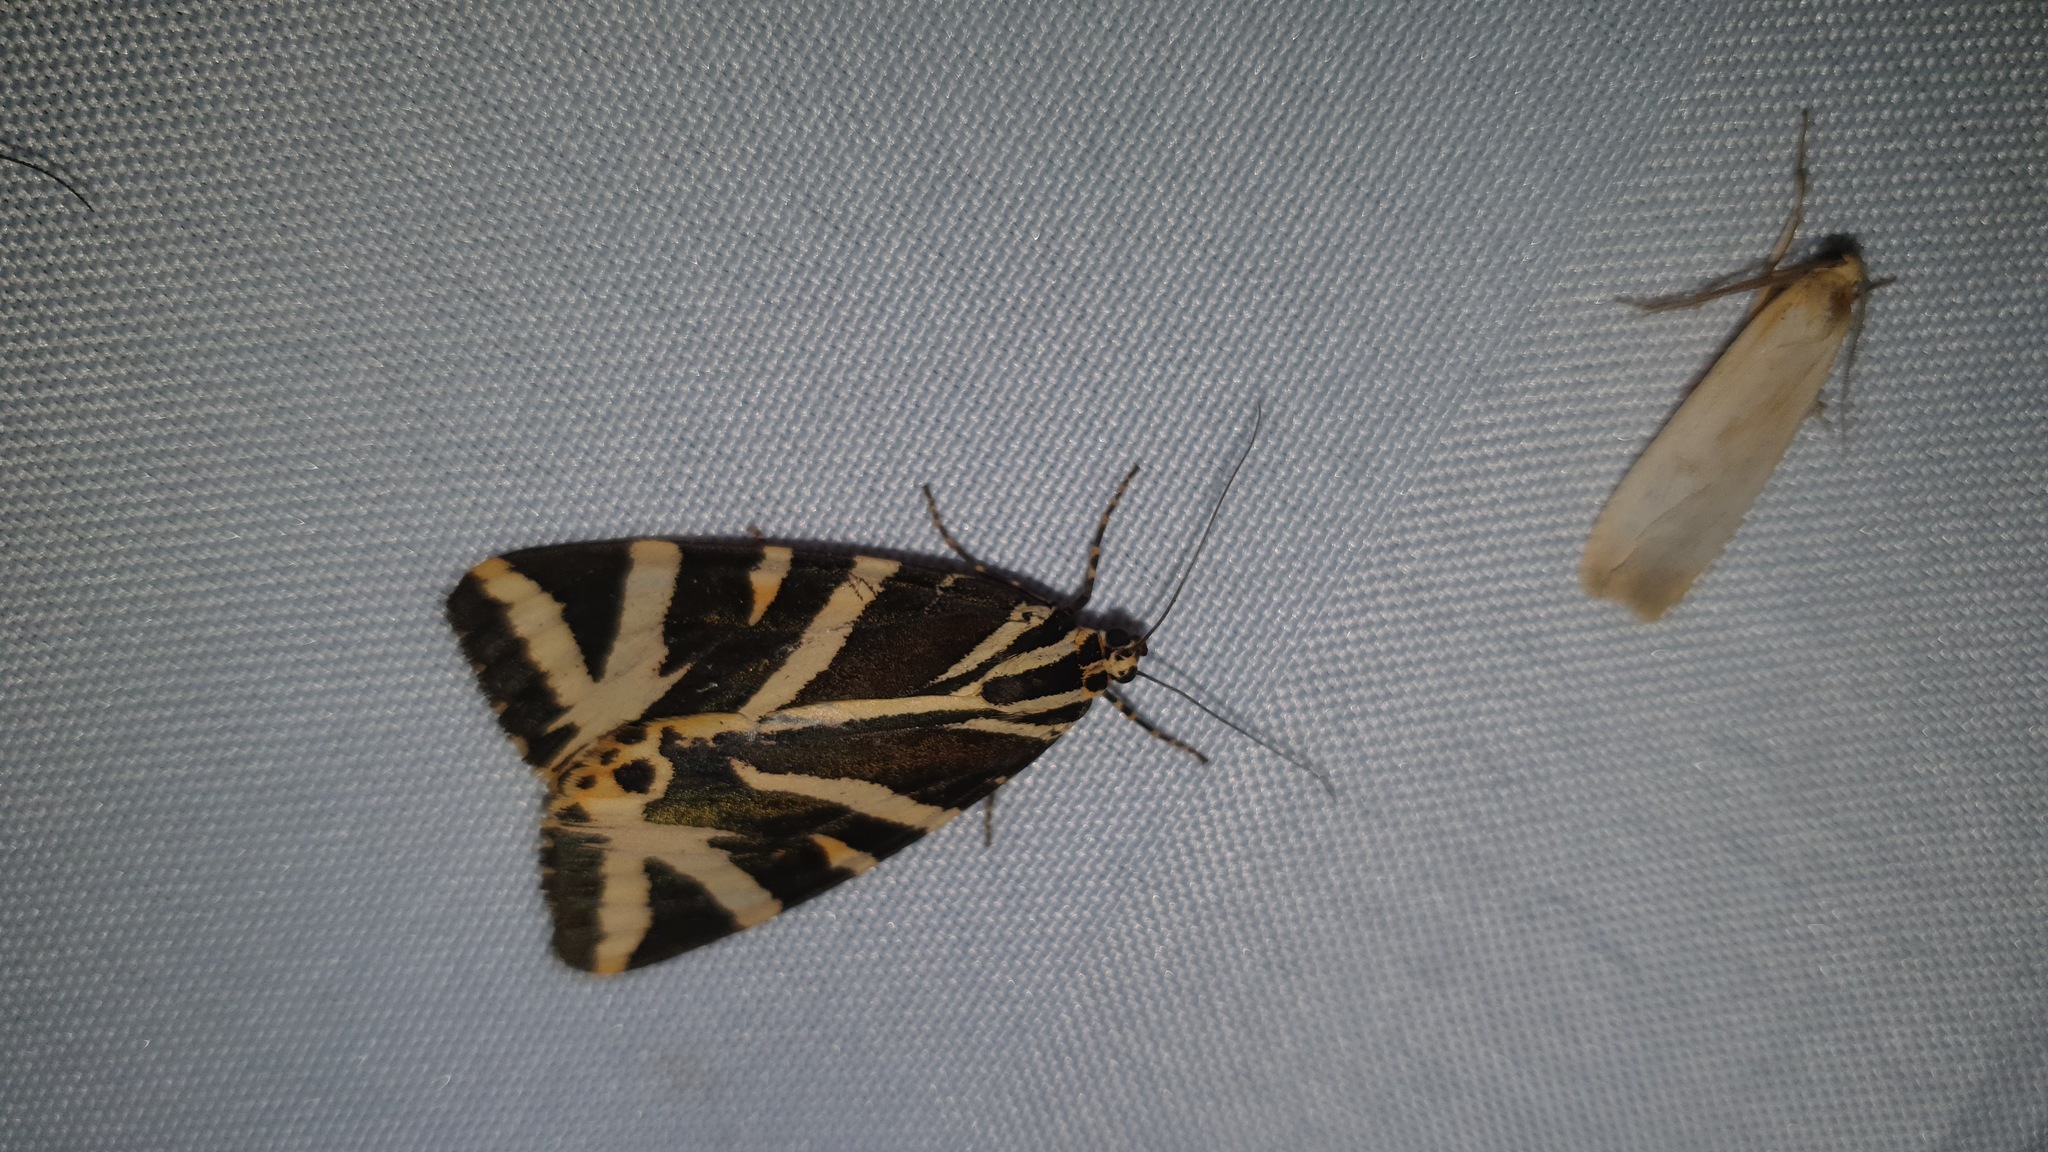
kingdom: Animalia
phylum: Arthropoda
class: Insecta
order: Lepidoptera
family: Erebidae
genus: Euplagia
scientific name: Euplagia quadripunctaria
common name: Jersey tiger
